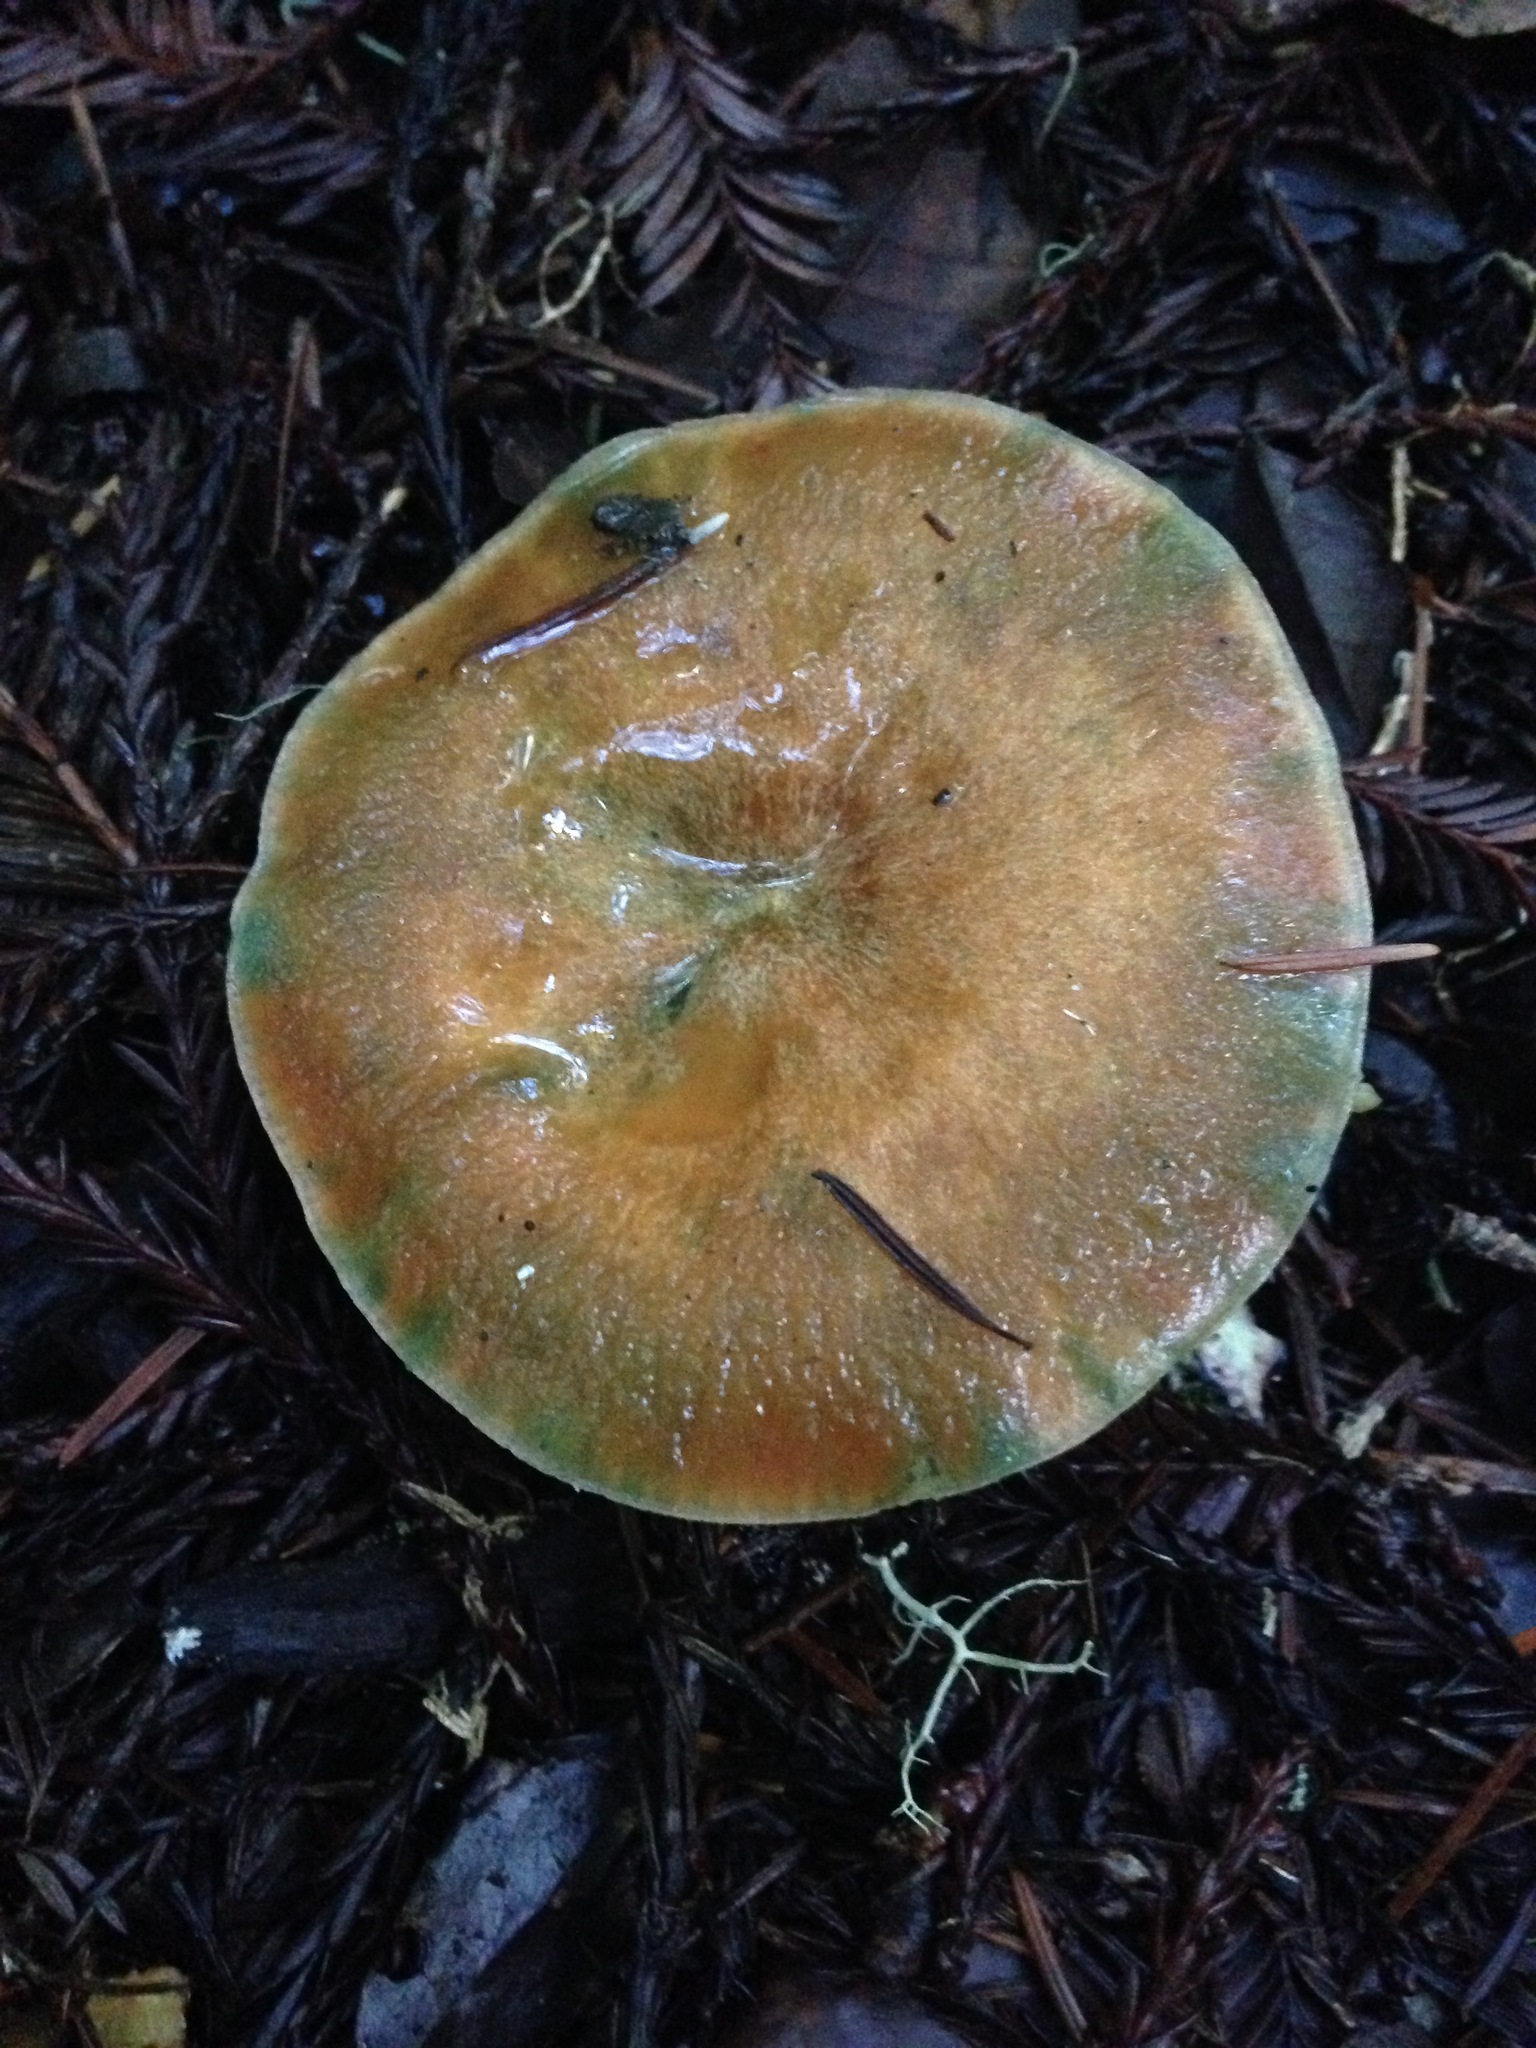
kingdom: Fungi
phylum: Basidiomycota
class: Agaricomycetes
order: Russulales
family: Russulaceae
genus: Lactarius
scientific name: Lactarius rubrilacteus
